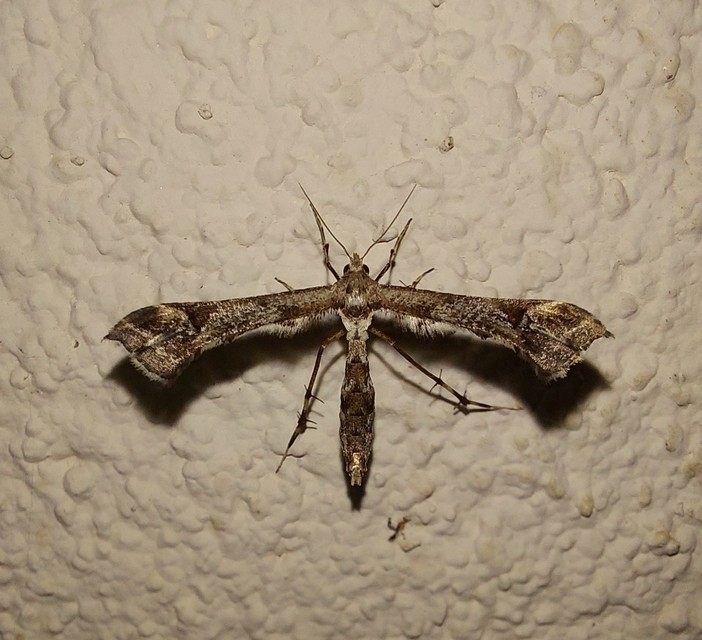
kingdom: Animalia
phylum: Arthropoda
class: Insecta
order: Lepidoptera
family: Pterophoridae
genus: Postplatyptilia
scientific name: Postplatyptilia fuscicornis
